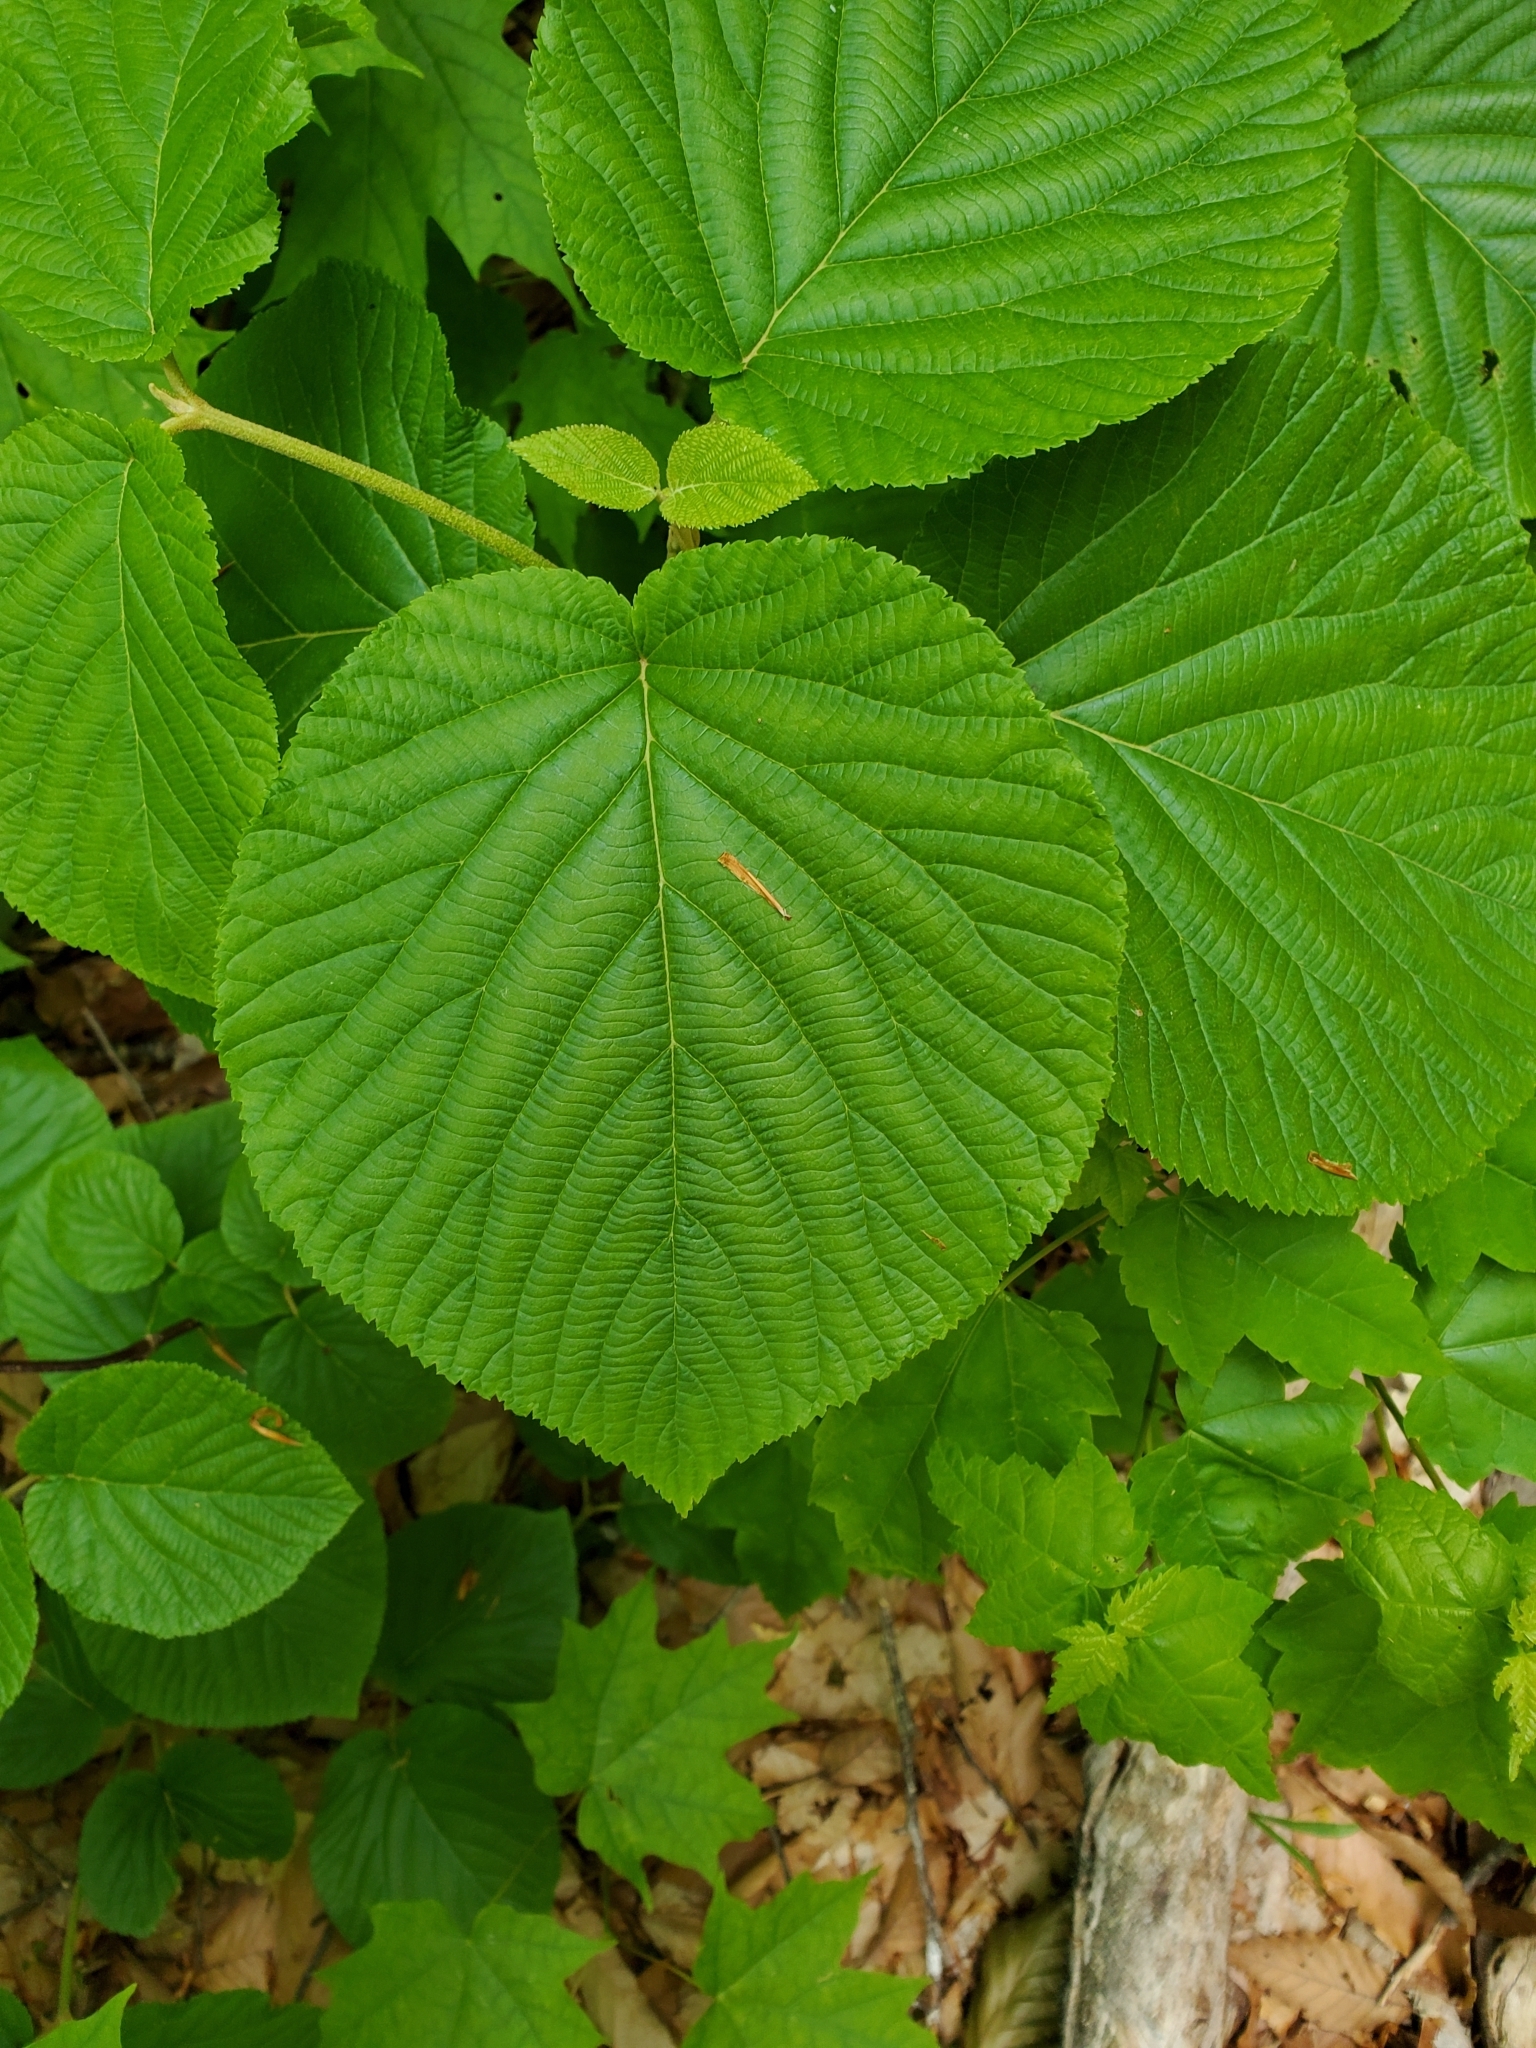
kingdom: Plantae
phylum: Tracheophyta
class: Magnoliopsida
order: Dipsacales
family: Viburnaceae
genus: Viburnum
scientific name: Viburnum lantanoides
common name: Hobblebush
